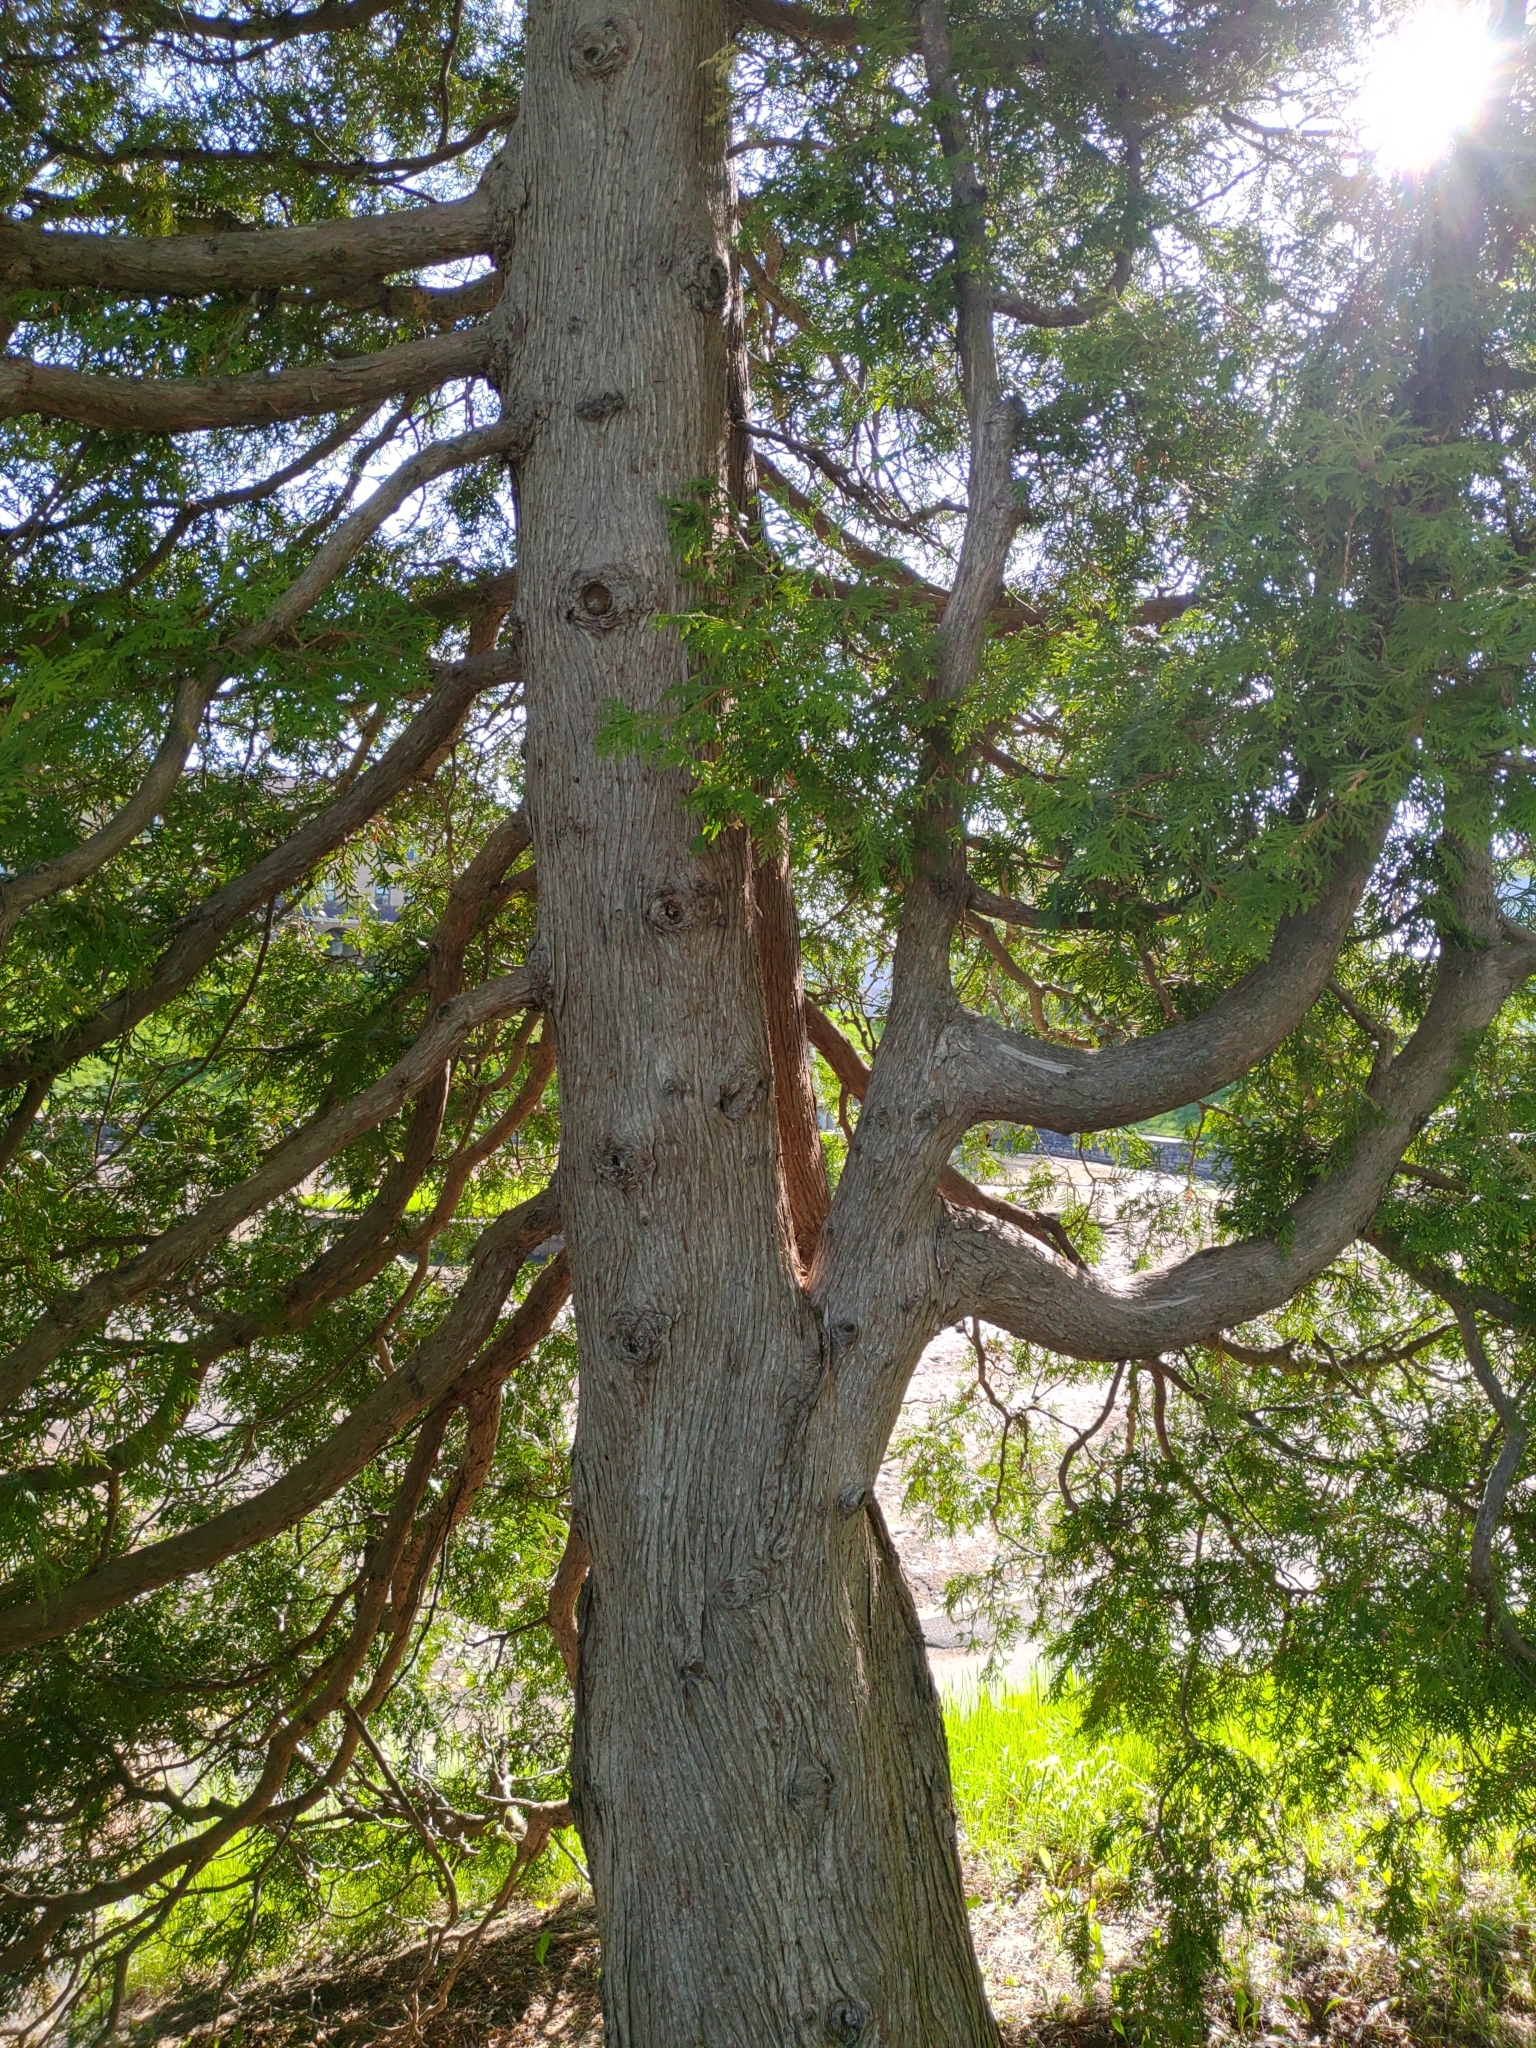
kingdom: Plantae
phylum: Tracheophyta
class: Pinopsida
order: Pinales
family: Cupressaceae
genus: Thuja
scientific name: Thuja occidentalis
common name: Northern white-cedar
